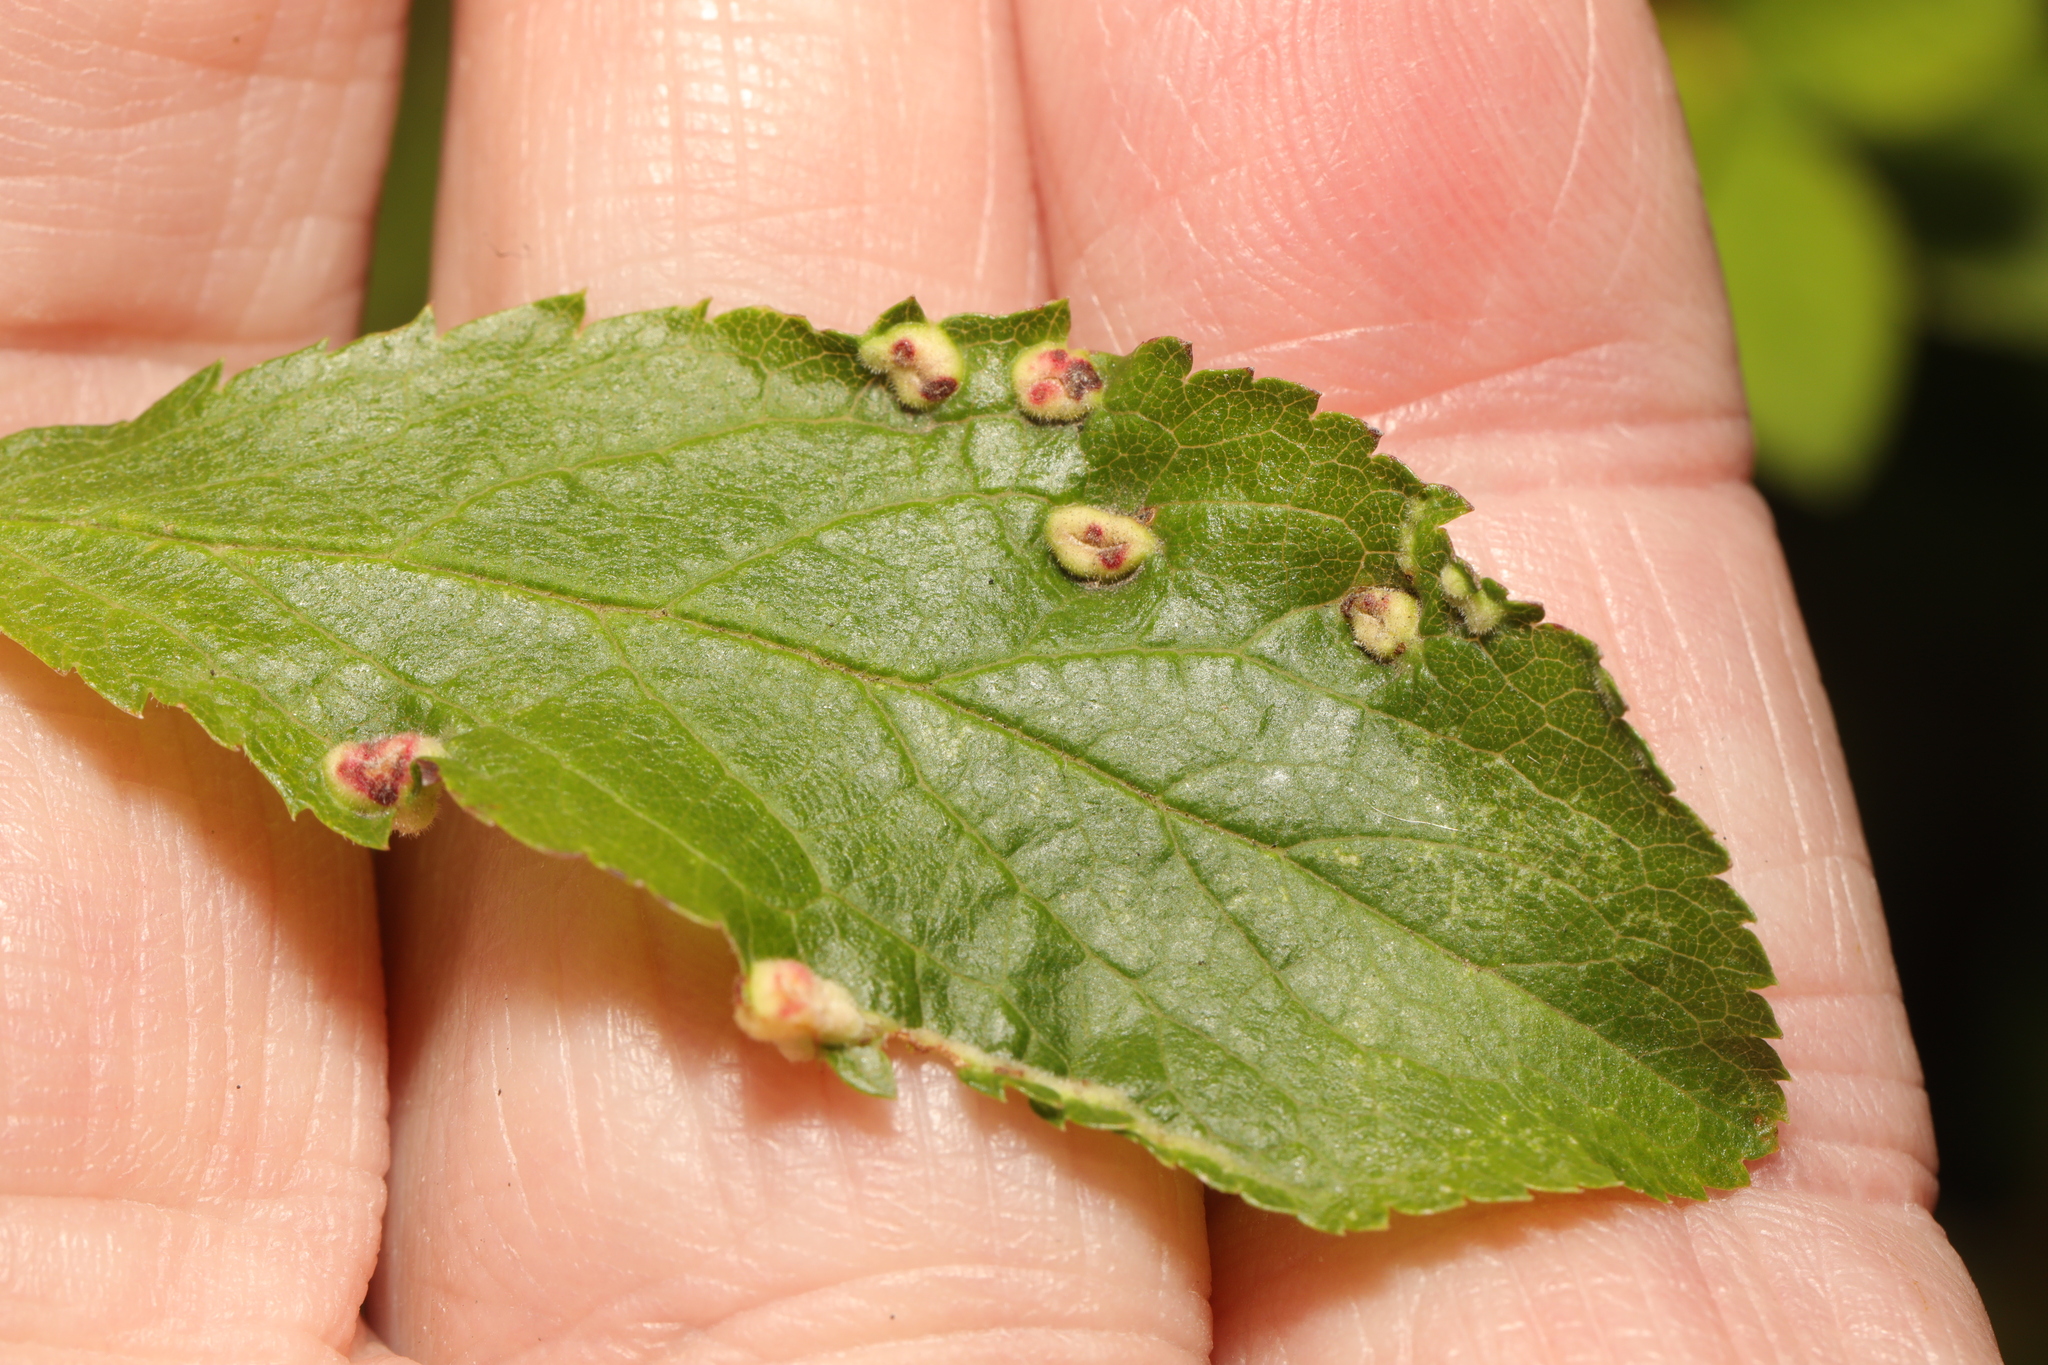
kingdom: Animalia
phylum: Arthropoda
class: Arachnida
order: Trombidiformes
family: Eriophyidae
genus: Eriophyes
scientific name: Eriophyes similis
